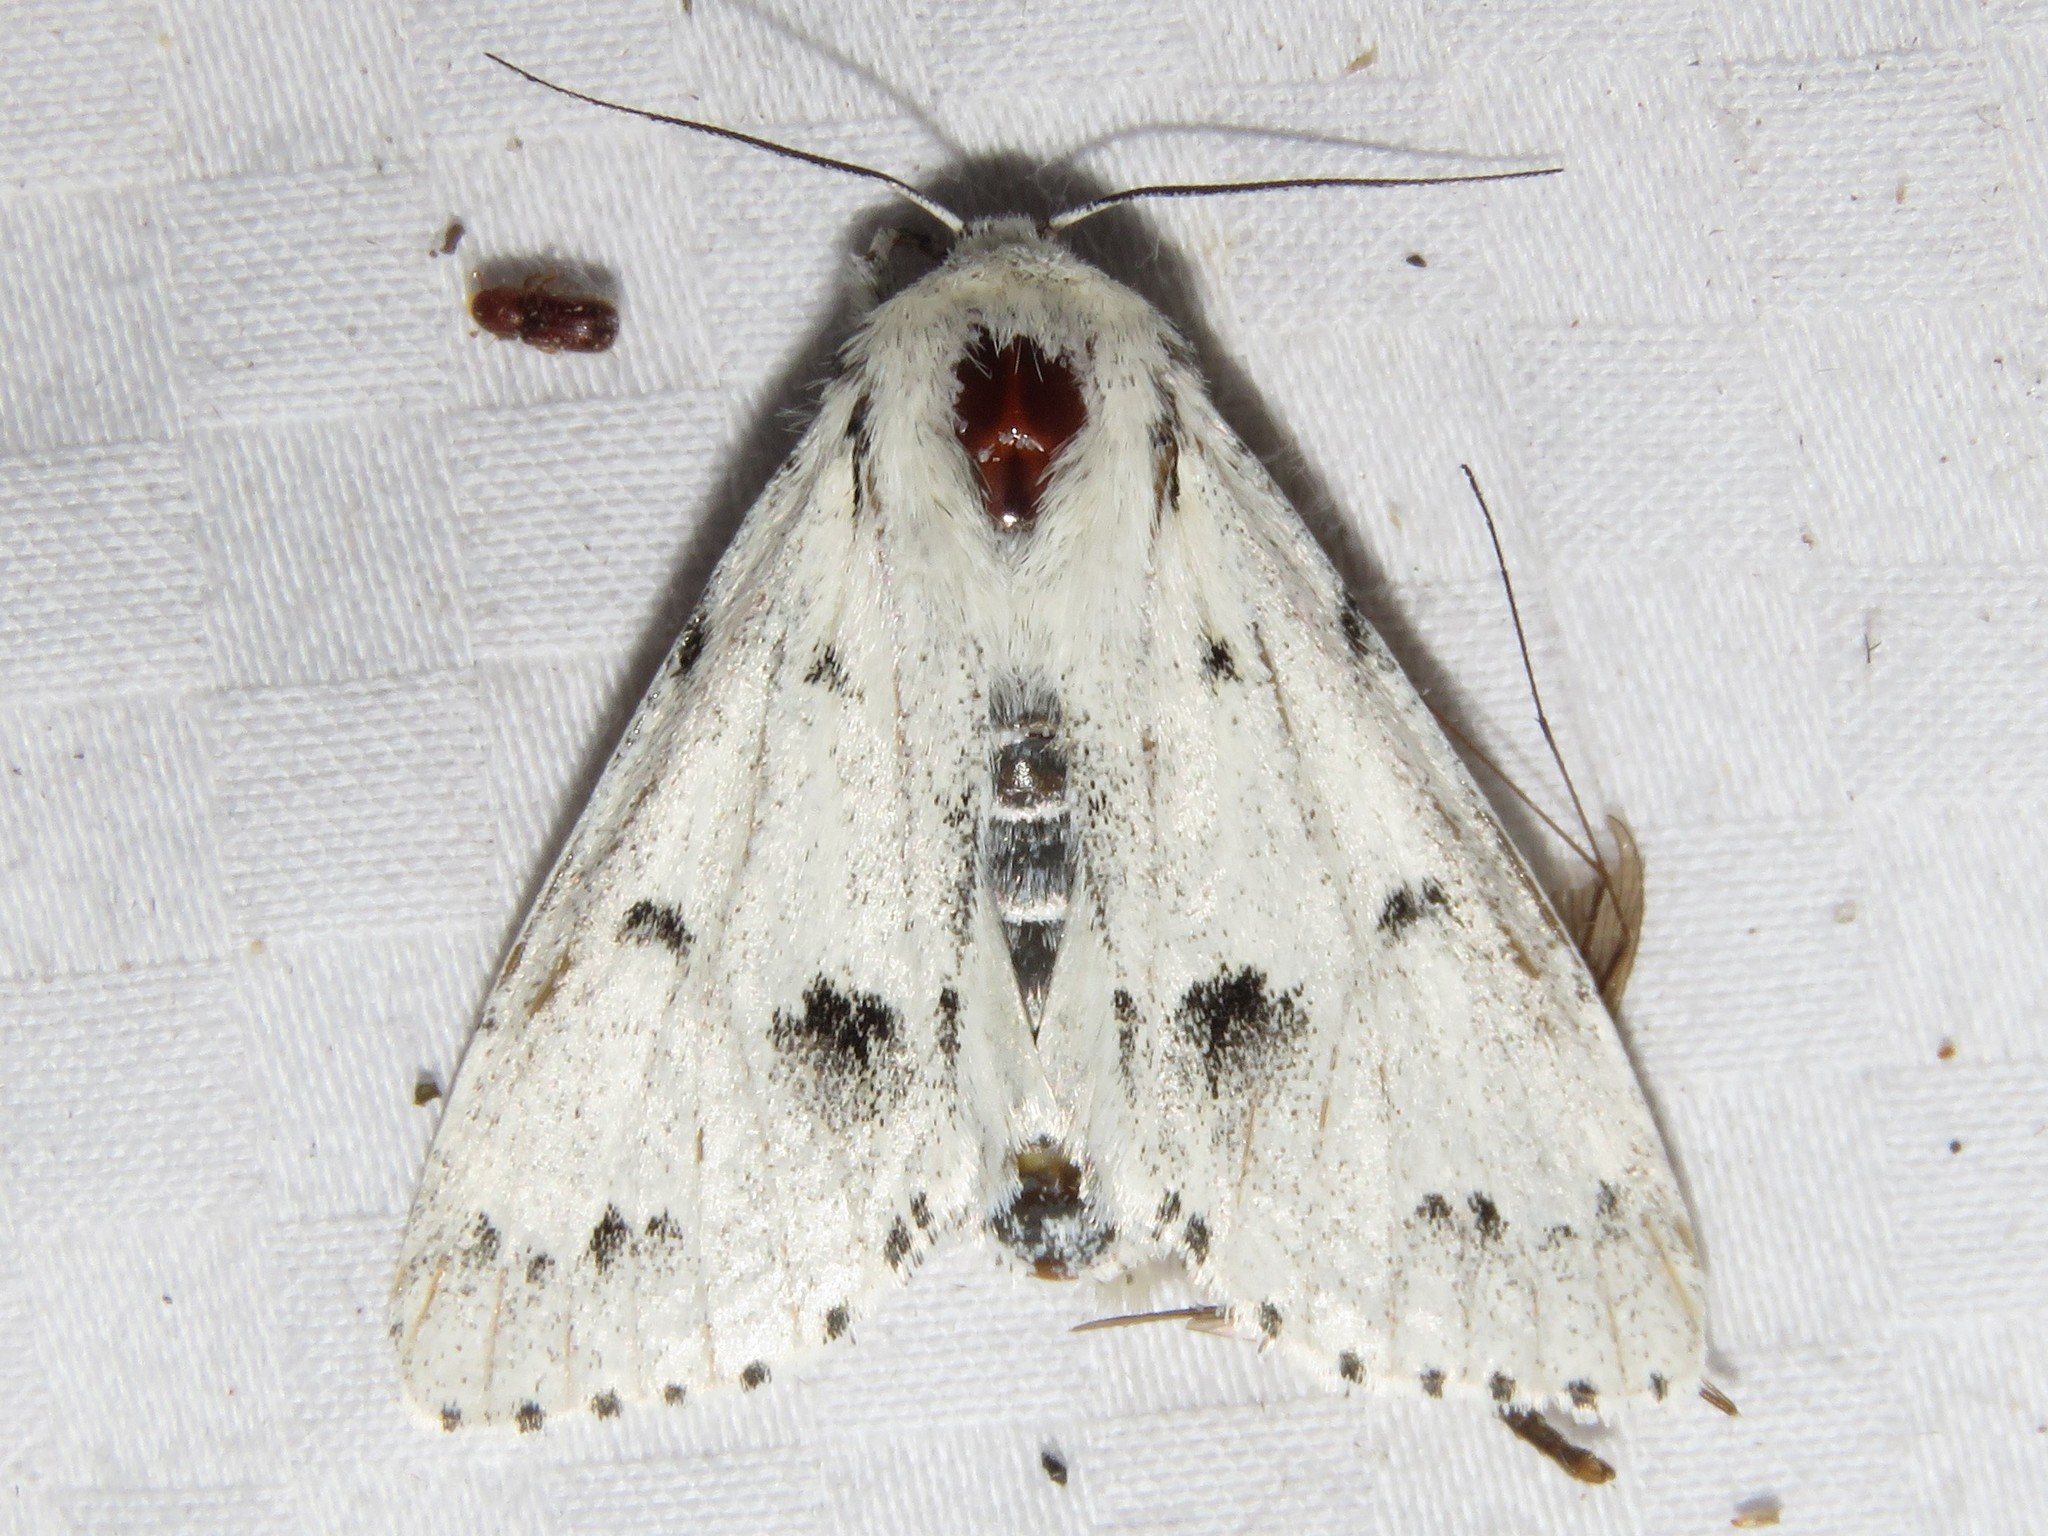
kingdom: Animalia
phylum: Arthropoda
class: Insecta
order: Lepidoptera
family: Noctuidae
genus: Acronicta
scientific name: Acronicta vulpina
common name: Miller dagger
